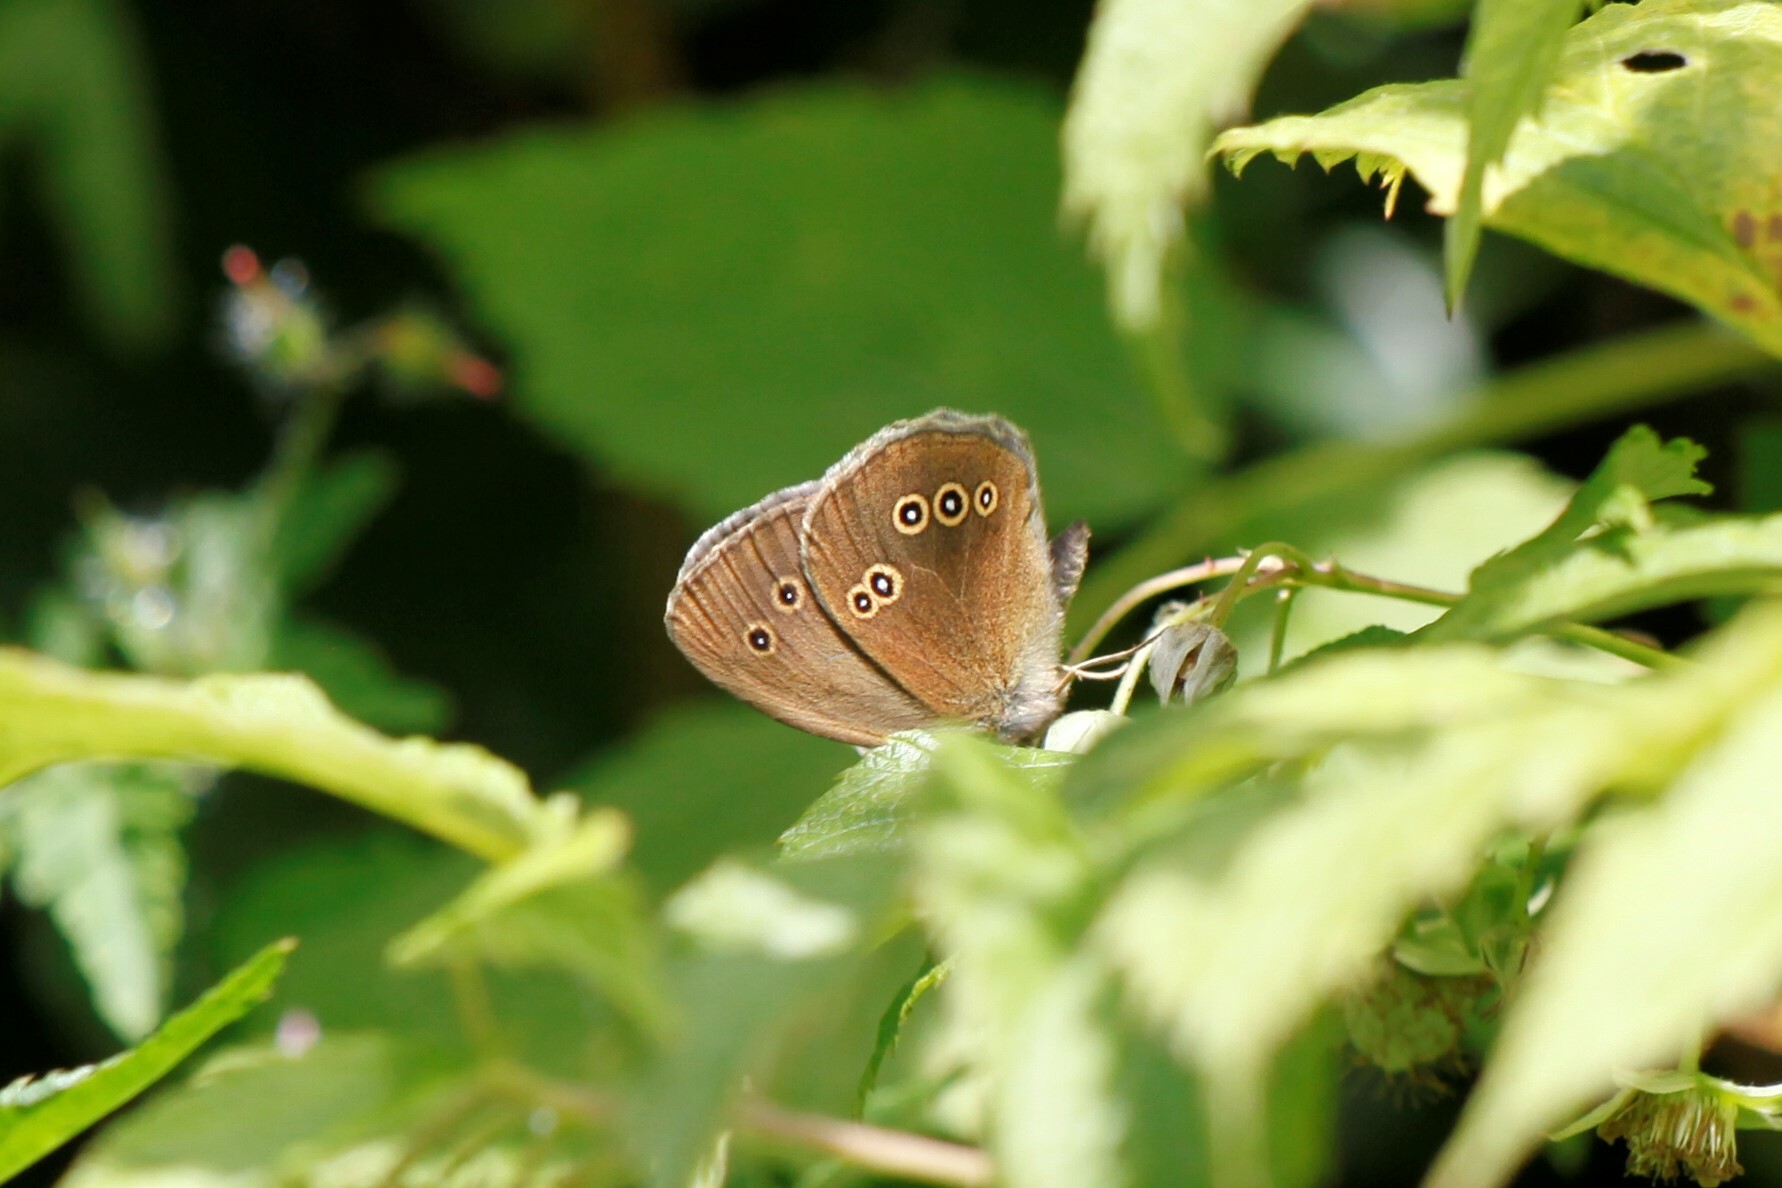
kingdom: Animalia
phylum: Arthropoda
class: Insecta
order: Lepidoptera
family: Nymphalidae
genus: Aphantopus
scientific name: Aphantopus hyperantus
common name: Ringlet
